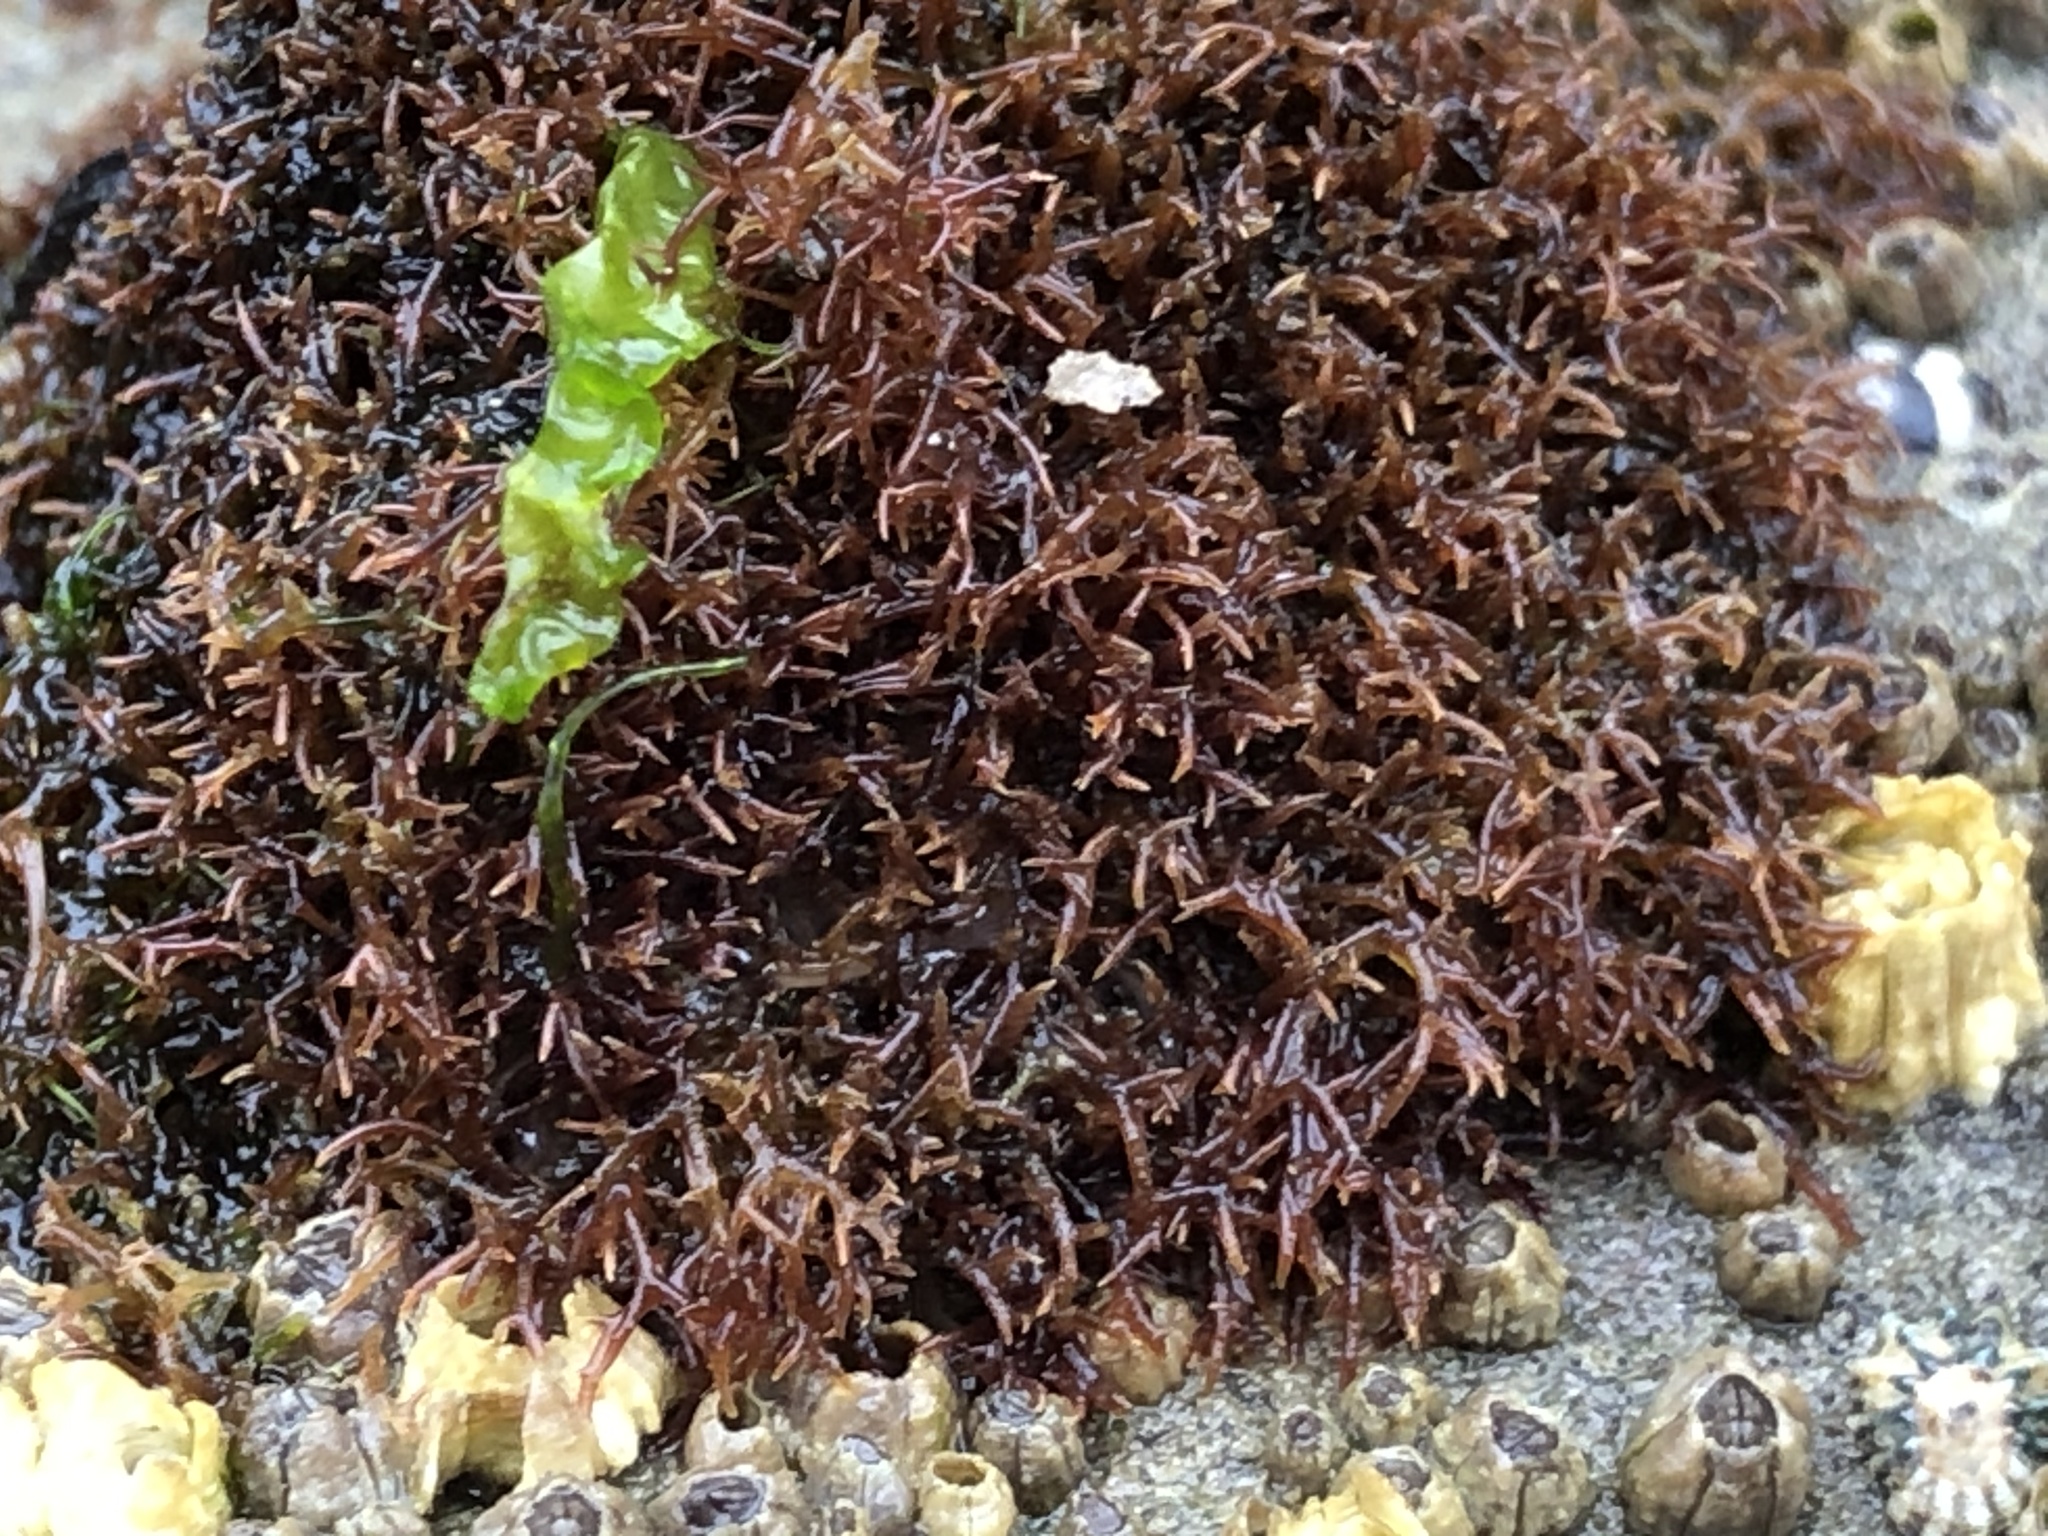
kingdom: Plantae
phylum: Rhodophyta
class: Florideophyceae
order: Gigartinales
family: Caulacanthaceae
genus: Caulacanthus
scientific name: Caulacanthus ustulatus
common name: Red algae
